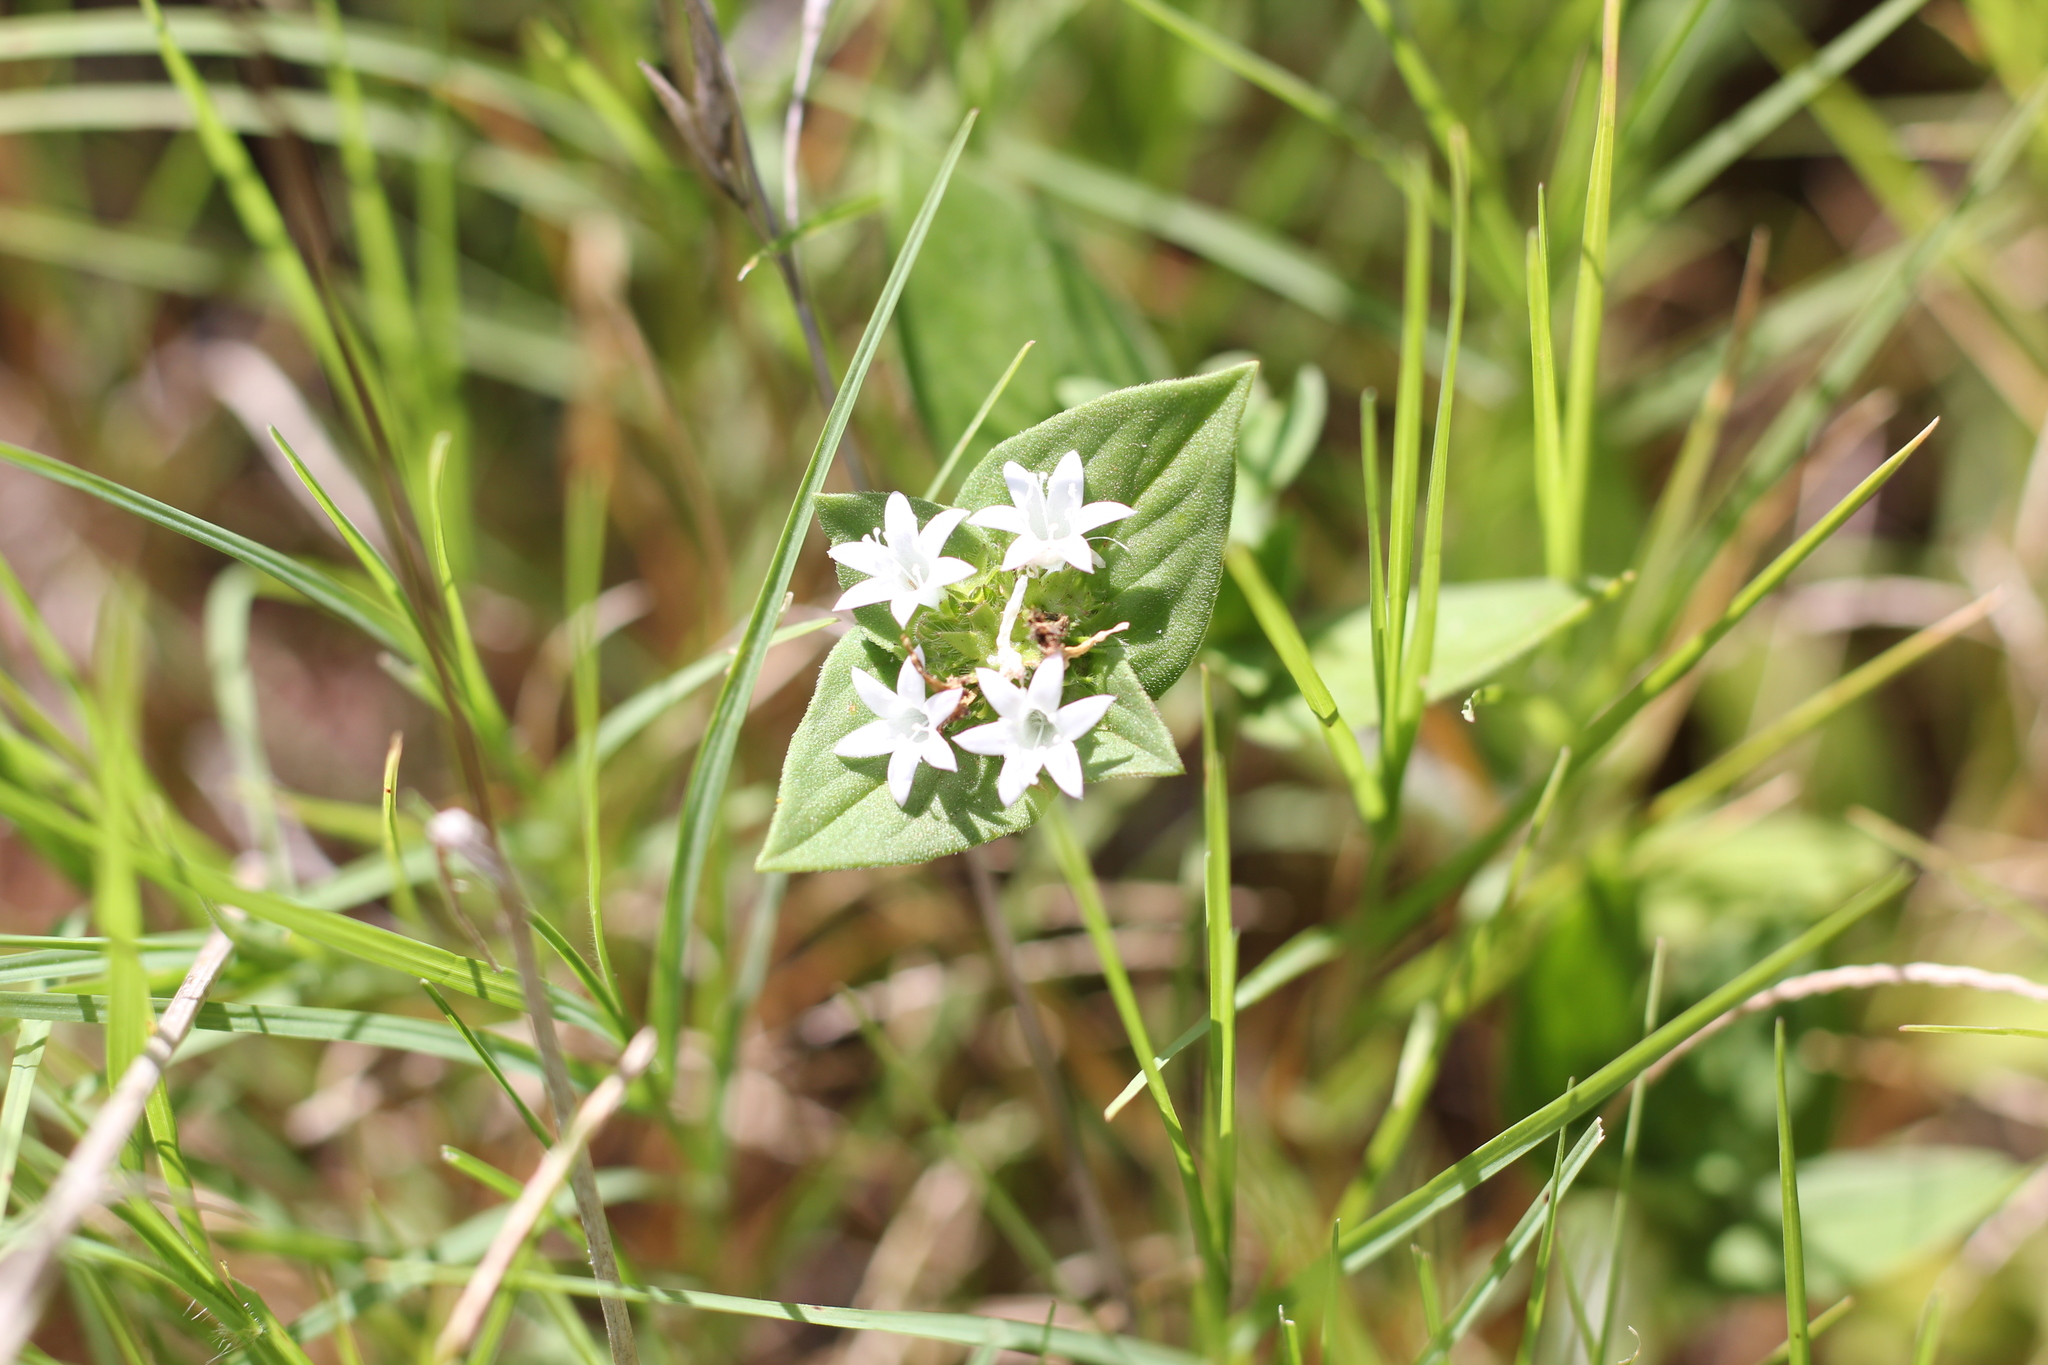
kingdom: Plantae
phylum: Tracheophyta
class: Magnoliopsida
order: Gentianales
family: Rubiaceae
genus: Richardia
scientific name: Richardia brasiliensis
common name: Tropical mexican clover
